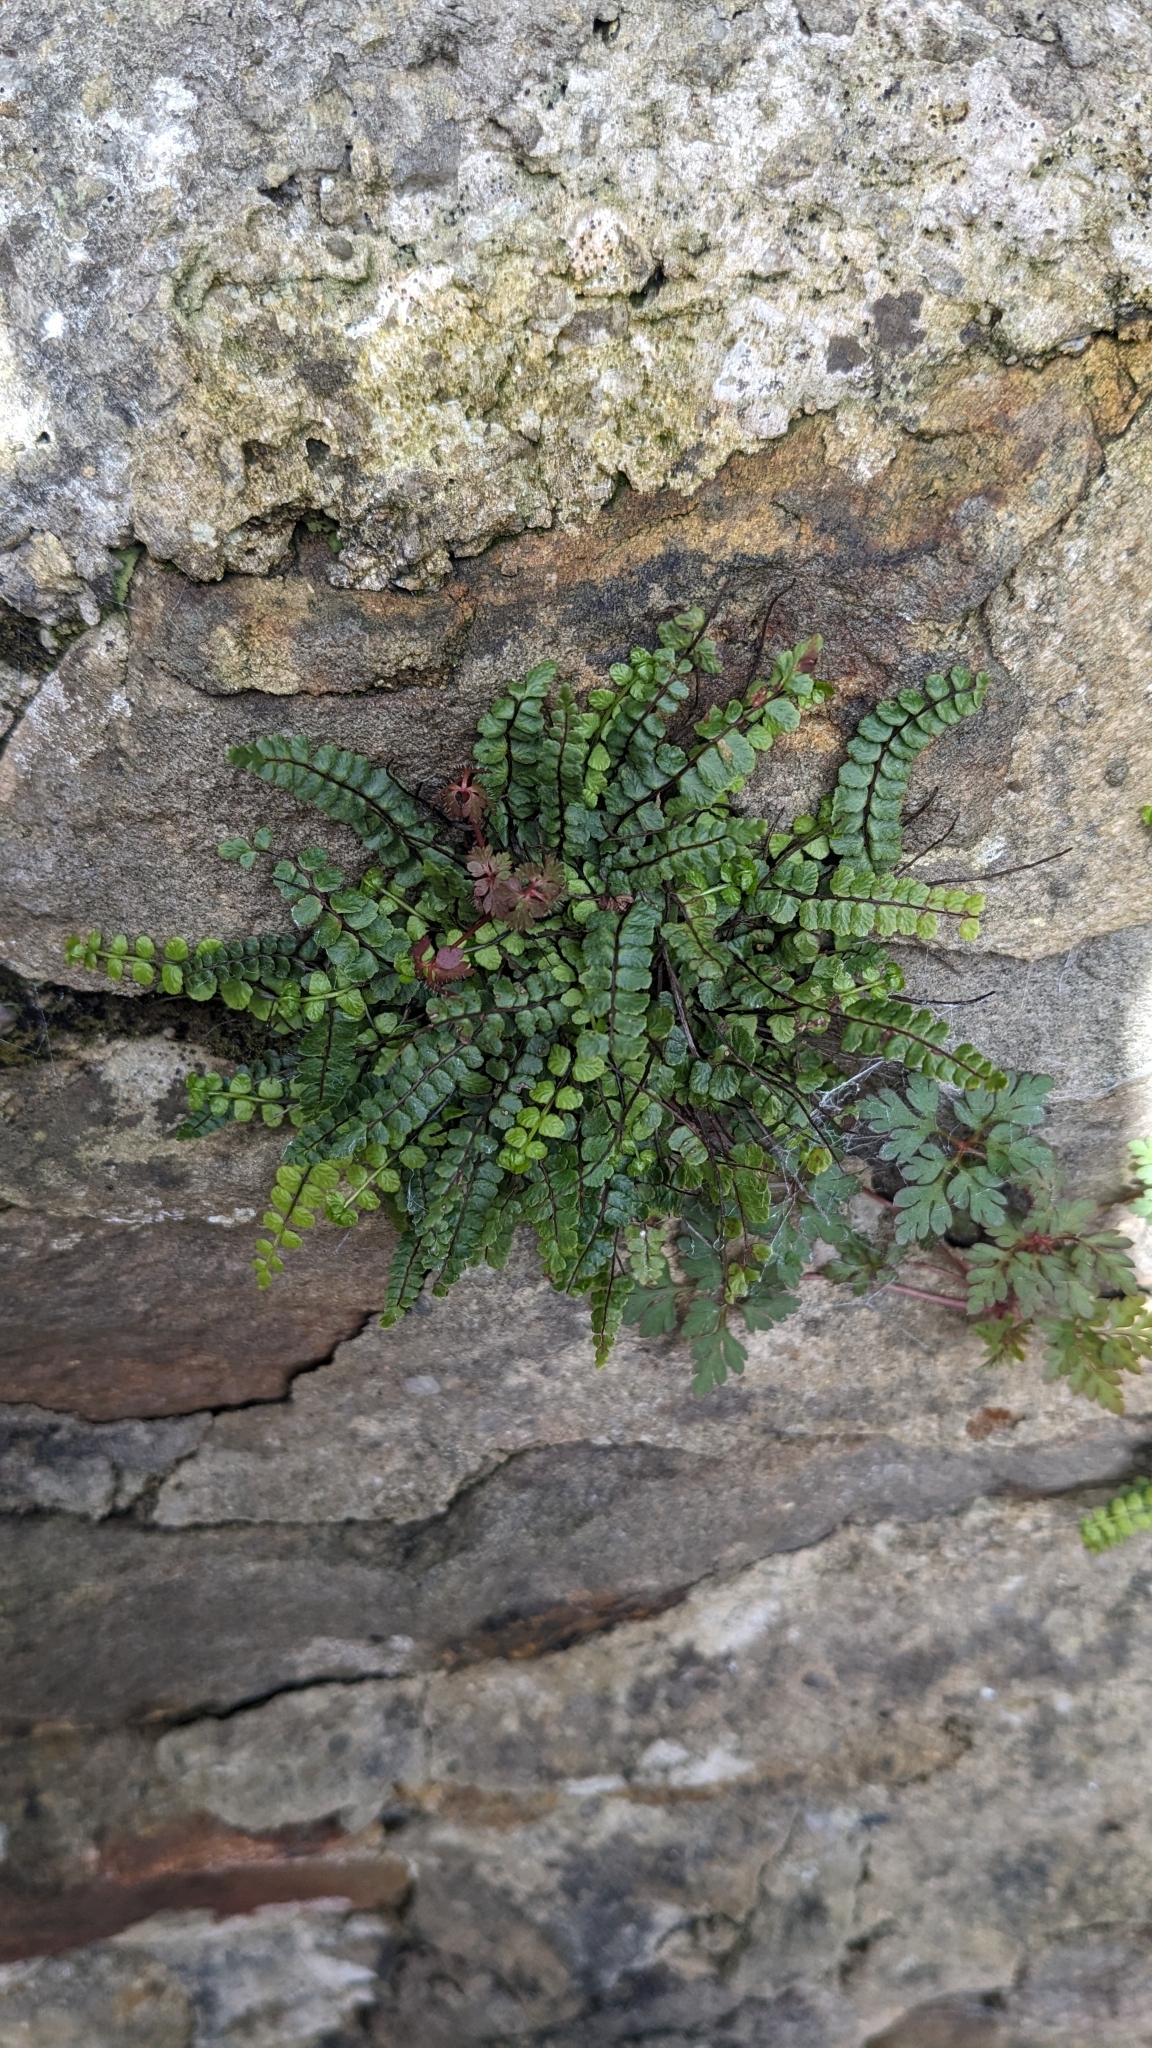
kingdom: Plantae
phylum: Tracheophyta
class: Polypodiopsida
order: Polypodiales
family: Aspleniaceae
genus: Asplenium
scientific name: Asplenium trichomanes
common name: Maidenhair spleenwort
